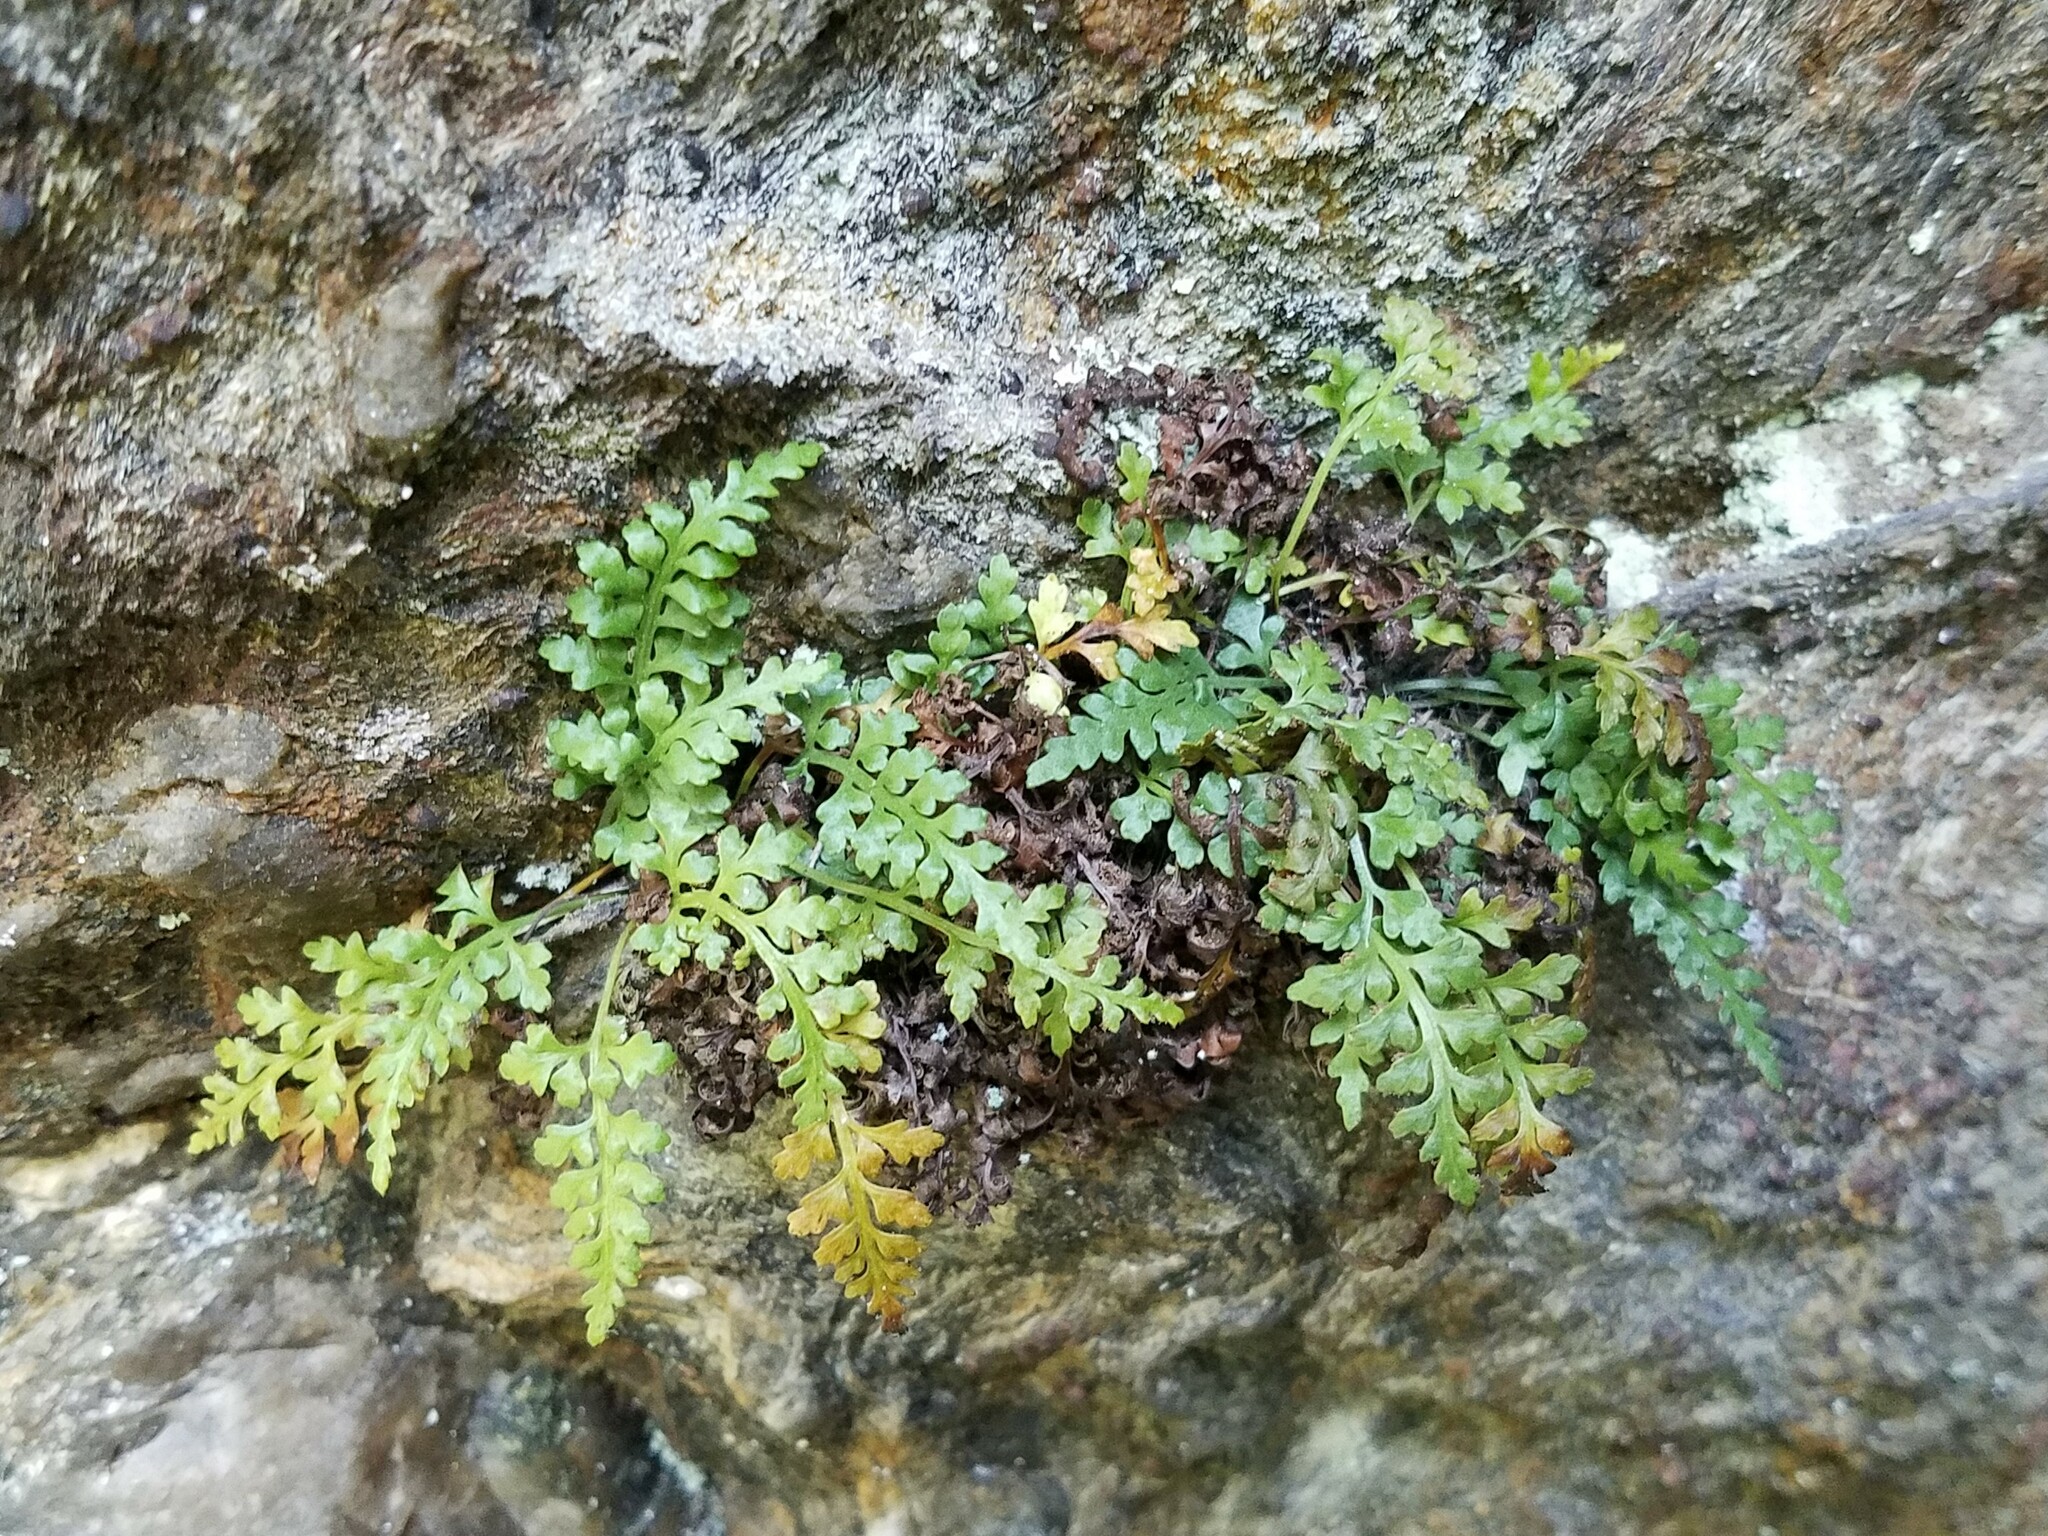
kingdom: Plantae
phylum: Tracheophyta
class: Polypodiopsida
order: Polypodiales
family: Aspleniaceae
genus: Asplenium
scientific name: Asplenium montanum
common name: Mountain spleenwort
